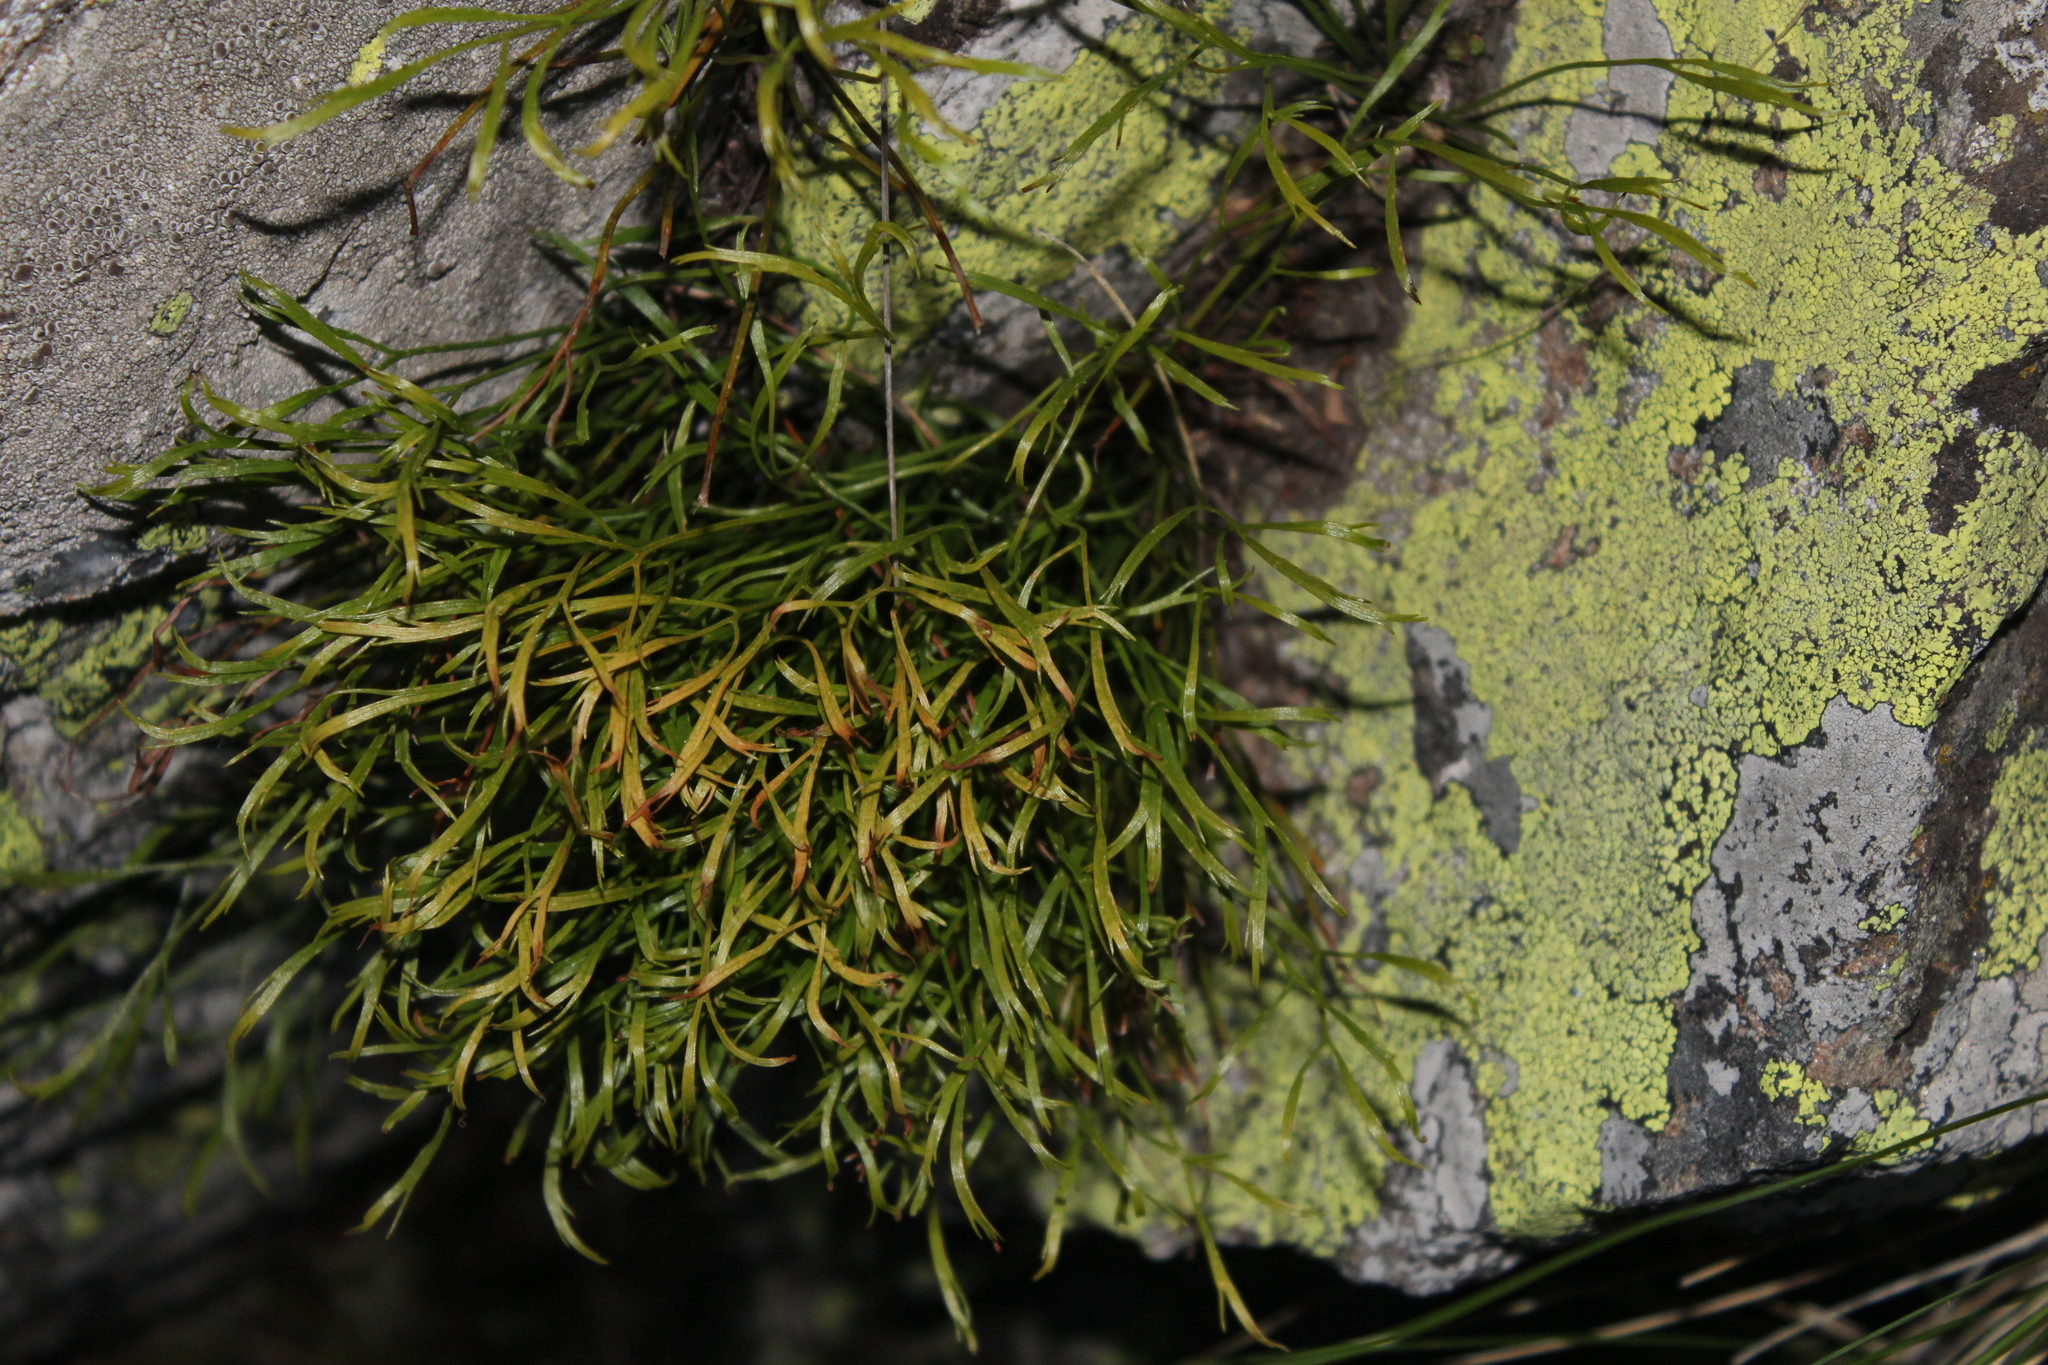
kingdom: Plantae
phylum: Tracheophyta
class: Polypodiopsida
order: Polypodiales
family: Aspleniaceae
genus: Asplenium
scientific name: Asplenium septentrionale
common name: Forked spleenwort
